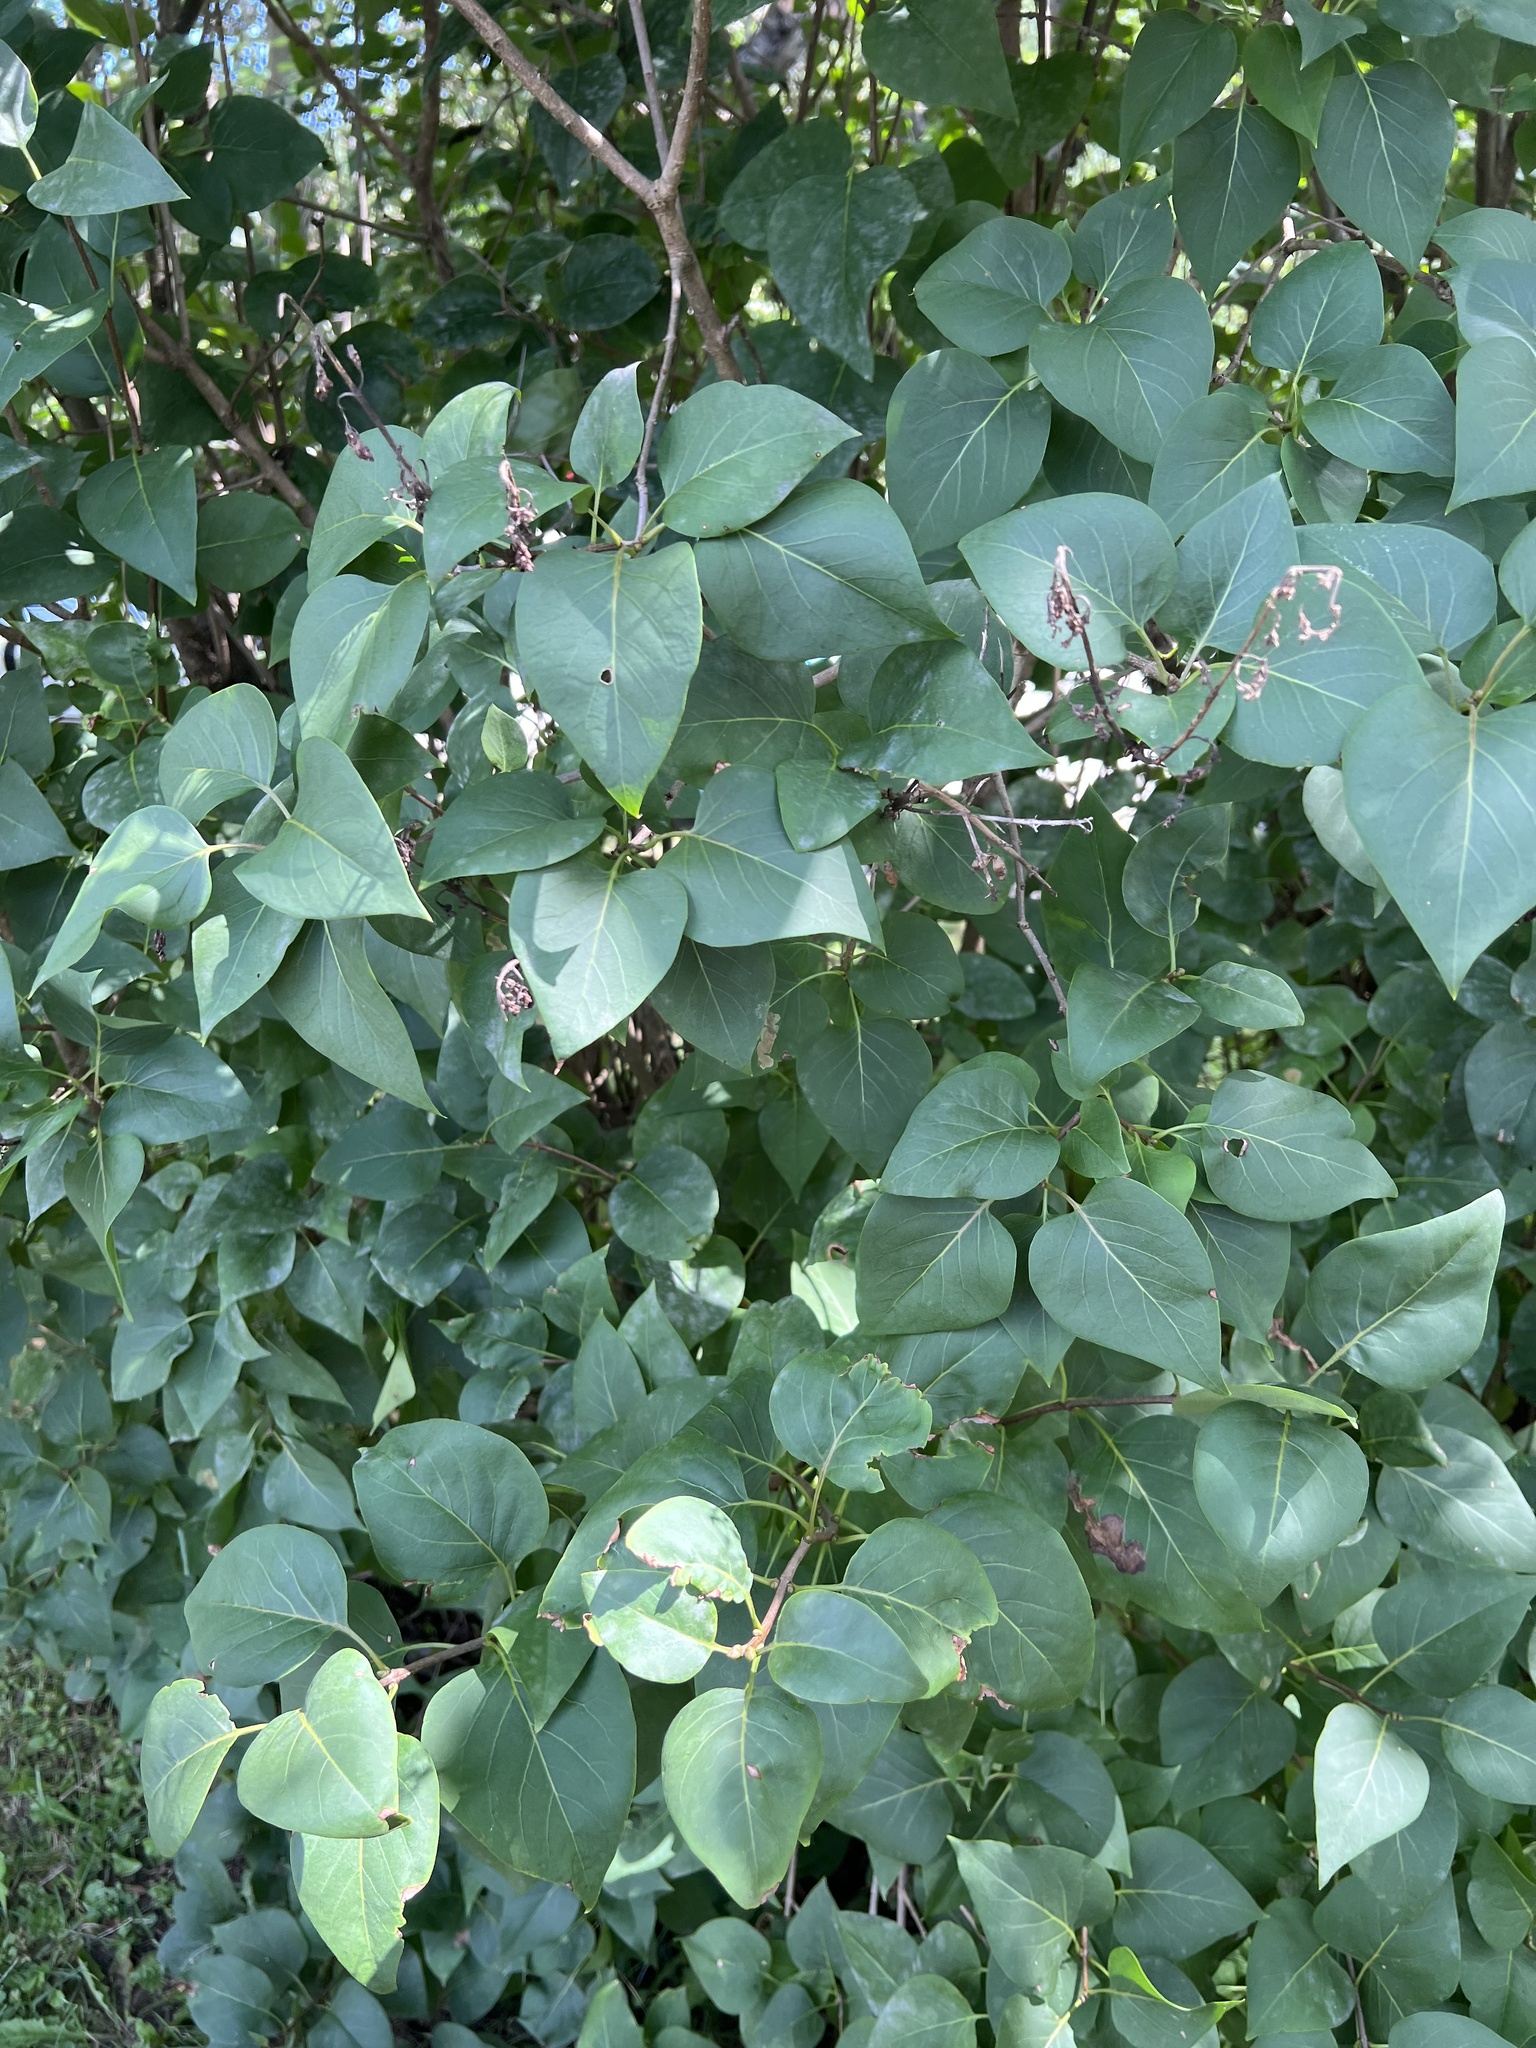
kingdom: Plantae
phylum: Tracheophyta
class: Magnoliopsida
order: Lamiales
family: Oleaceae
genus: Syringa
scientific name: Syringa vulgaris
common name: Common lilac
